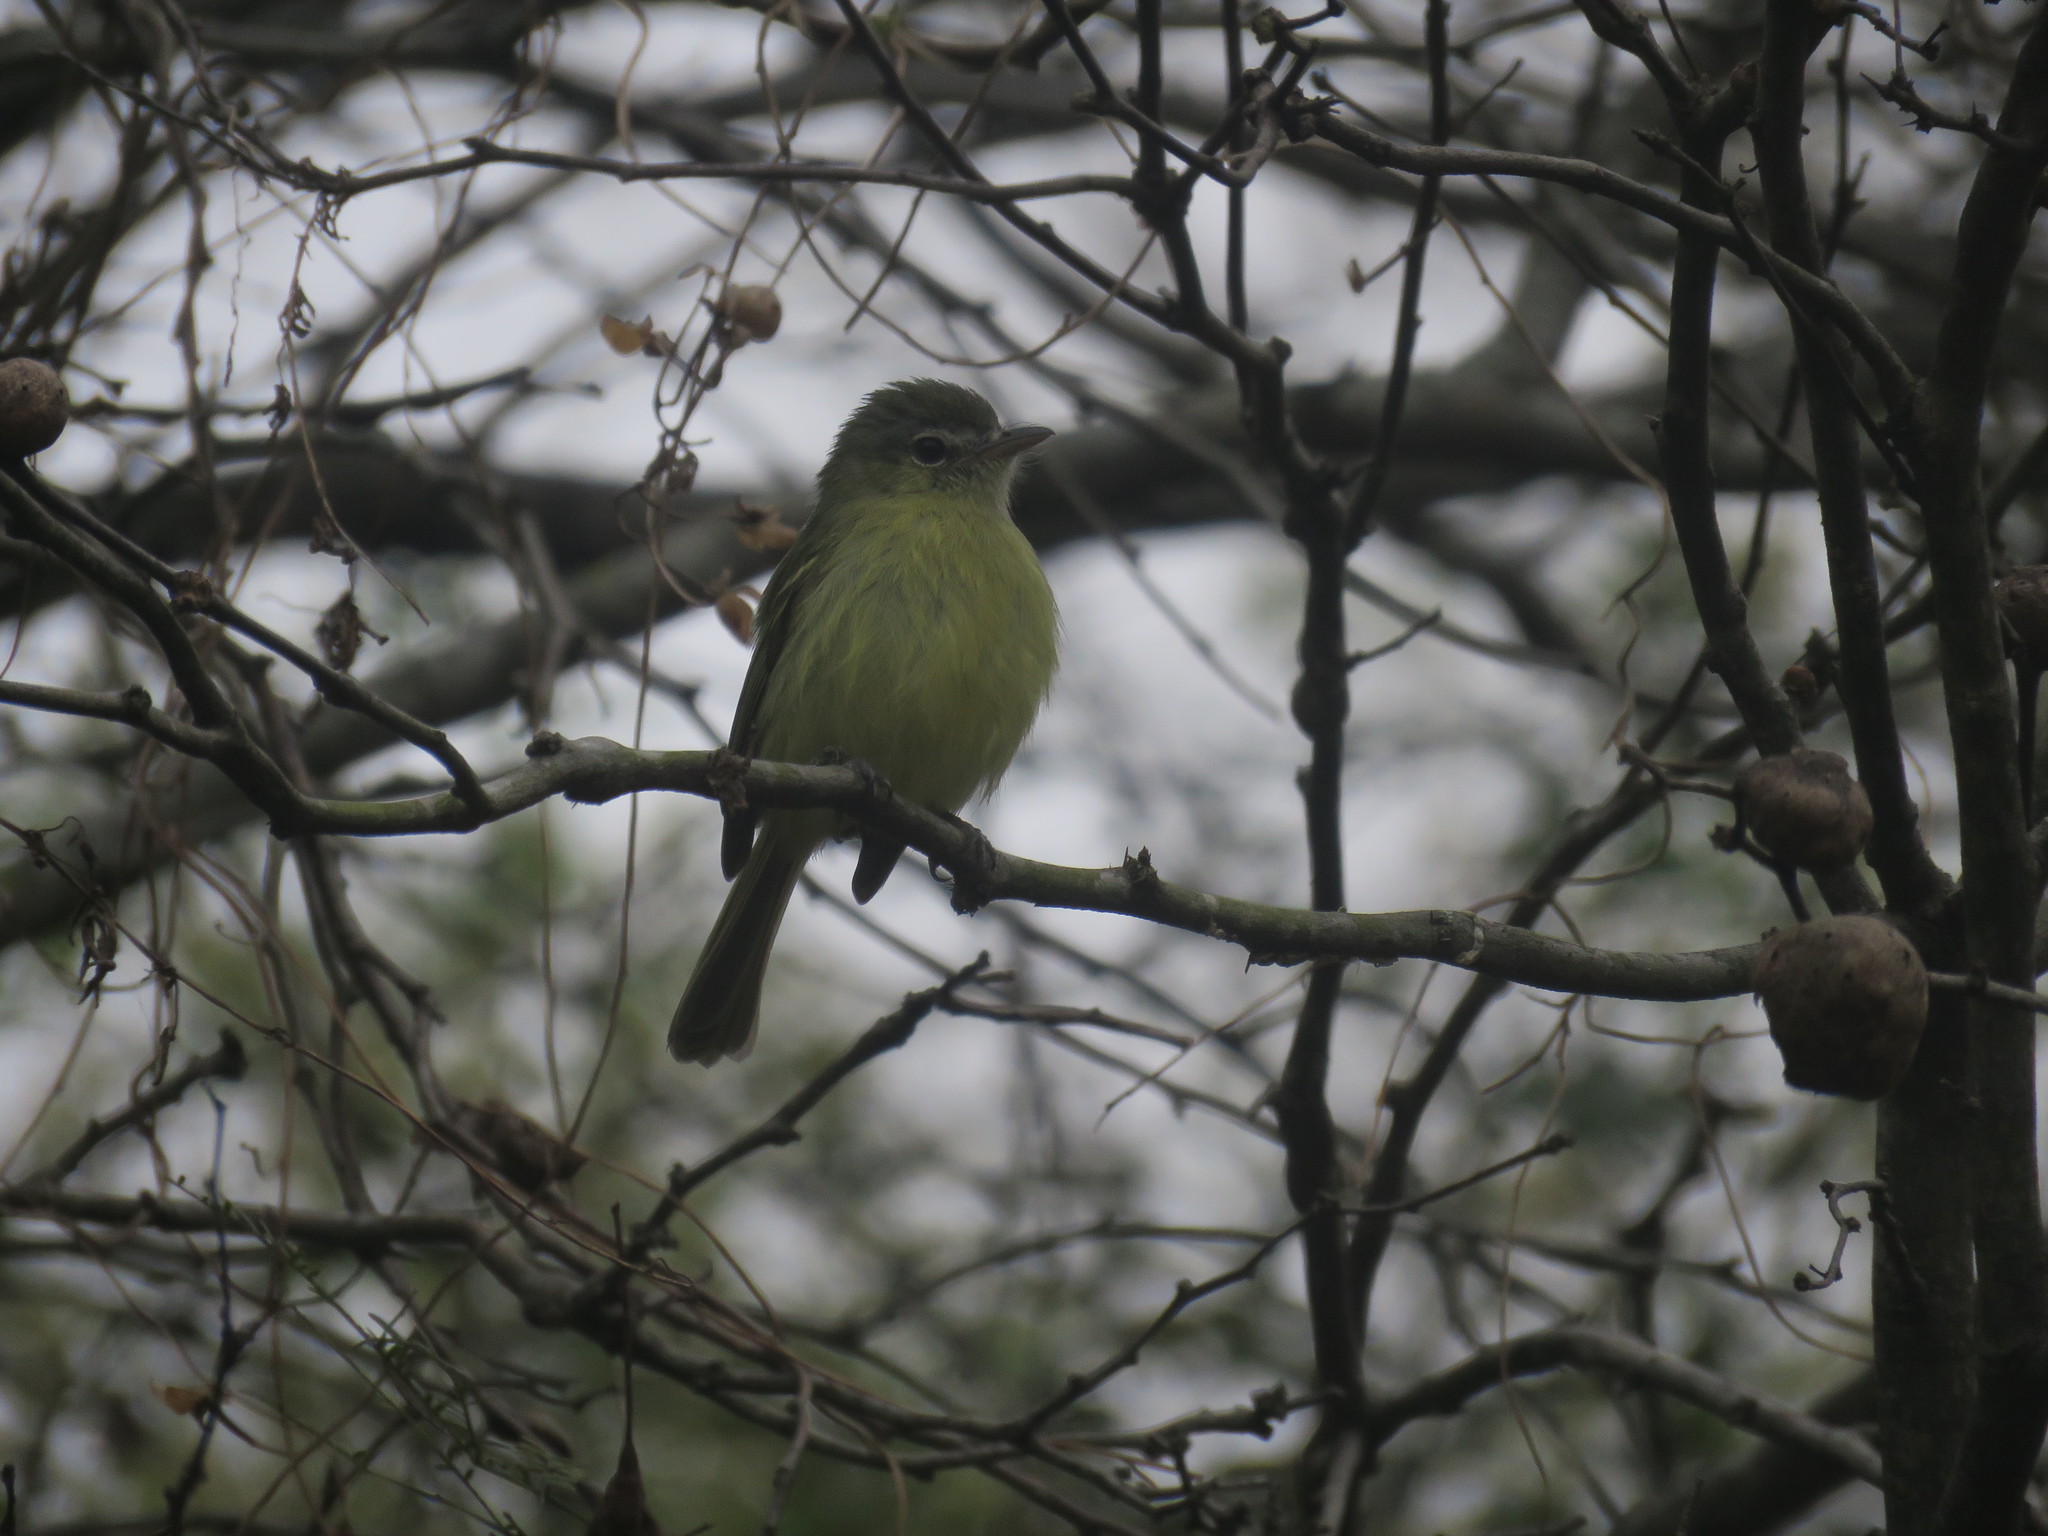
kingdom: Animalia
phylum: Chordata
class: Aves
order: Passeriformes
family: Tyrannidae
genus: Ramphotrigon
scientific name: Ramphotrigon megacephalum
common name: Large-headed flatbill
